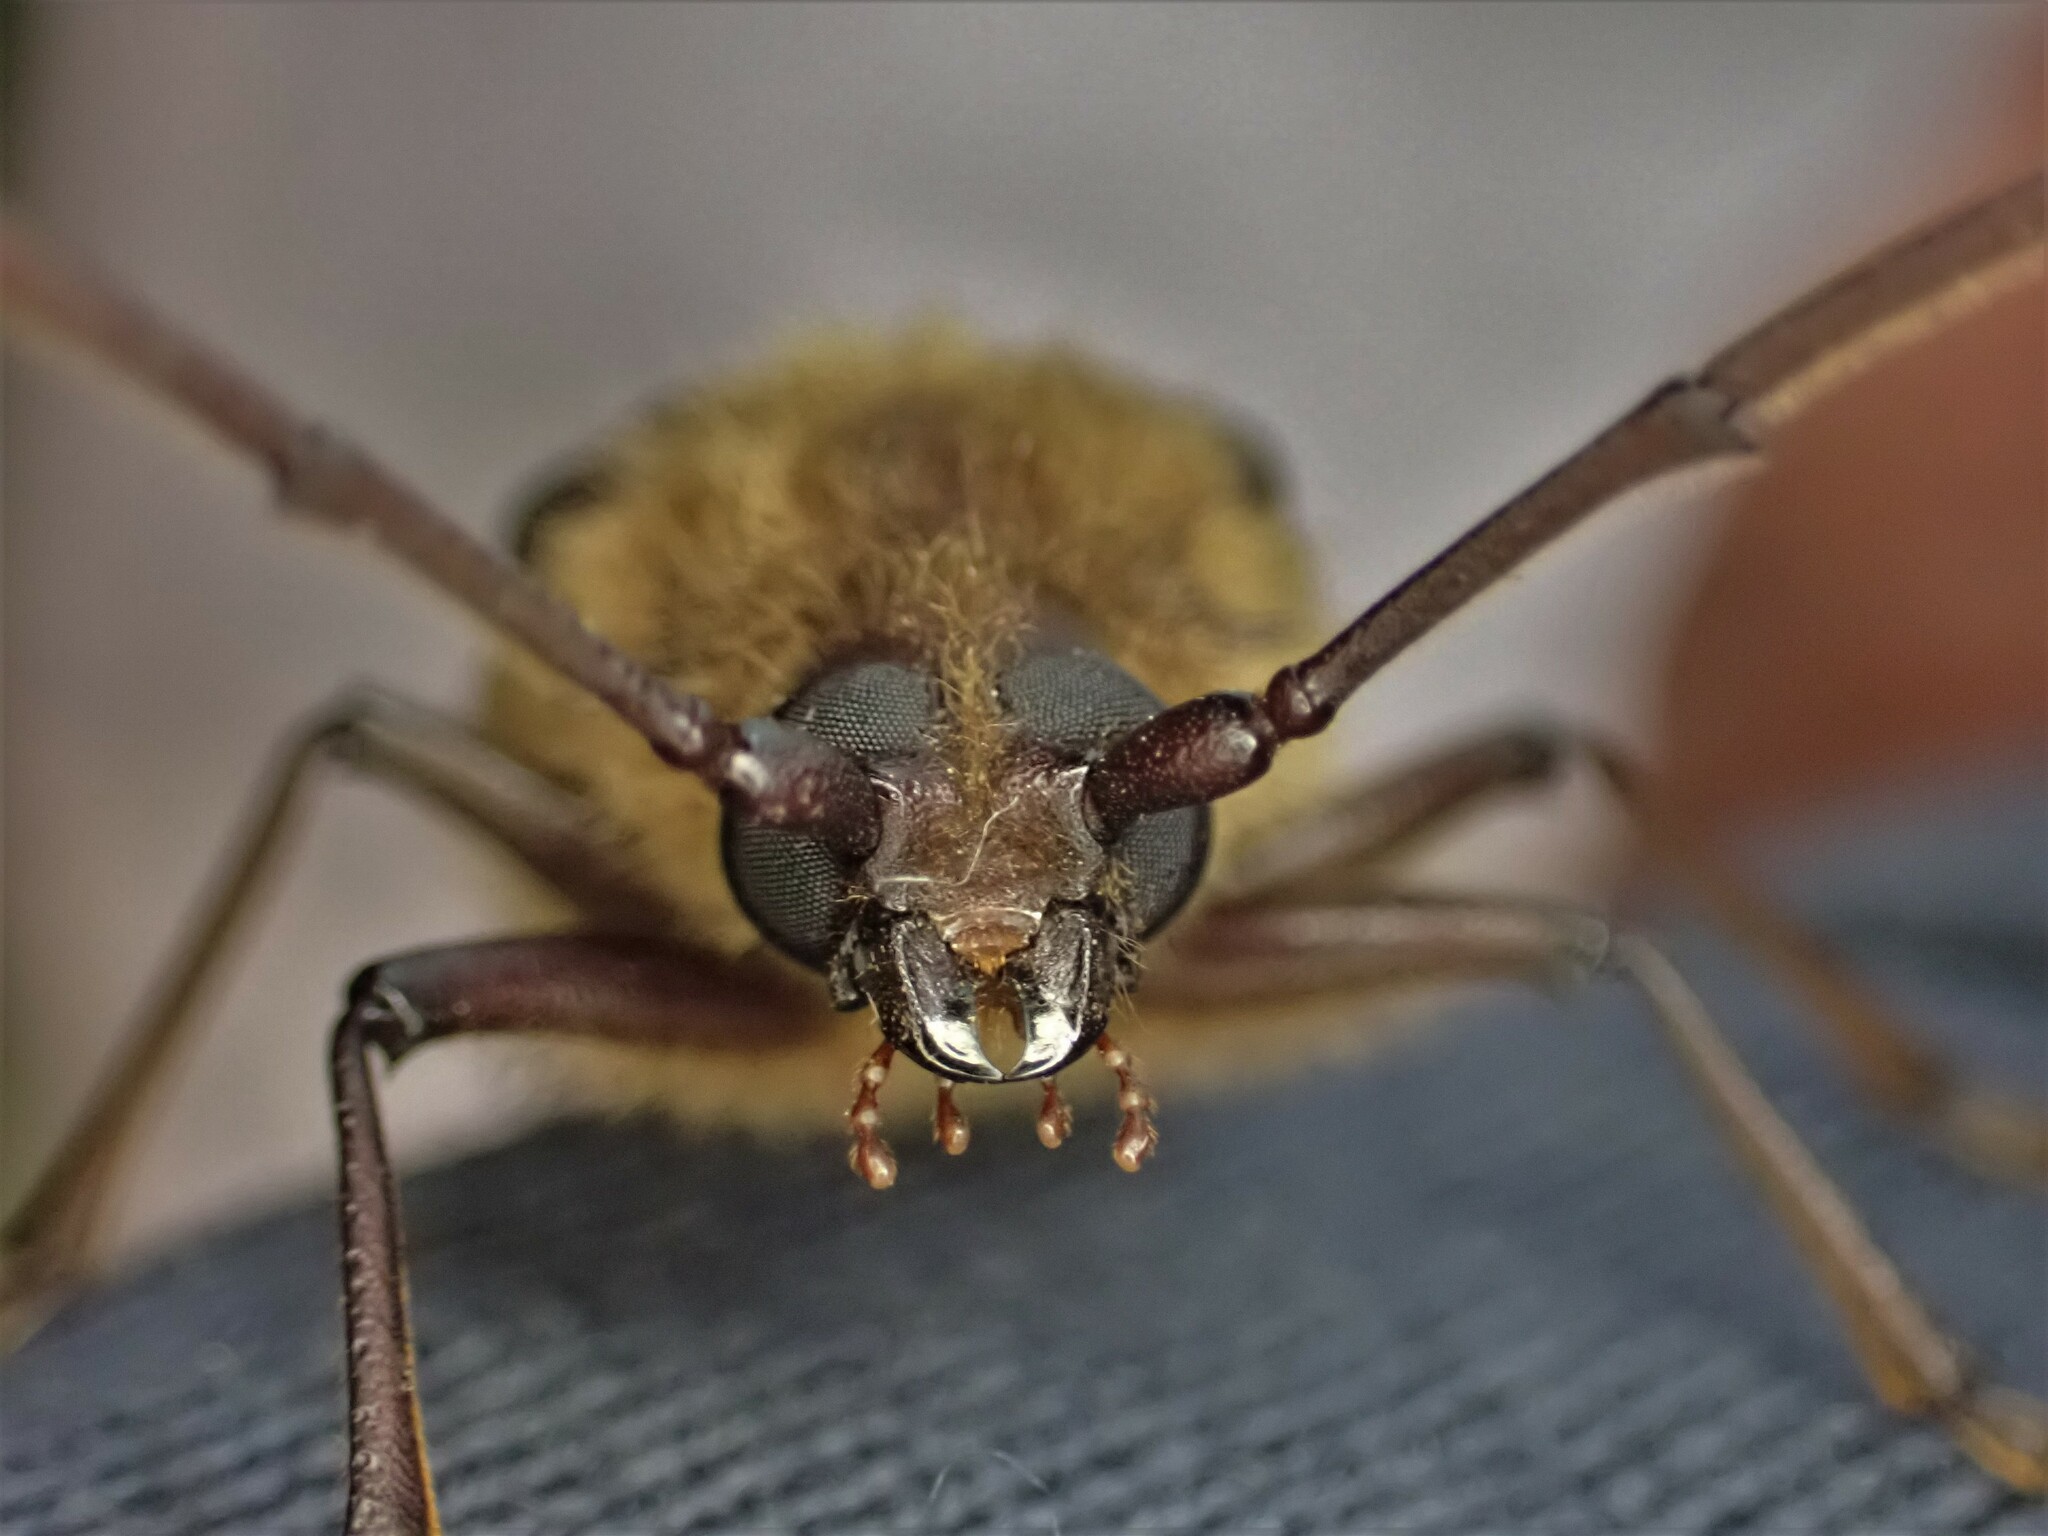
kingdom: Animalia
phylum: Arthropoda
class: Insecta
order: Coleoptera
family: Cerambycidae
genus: Prionoplus
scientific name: Prionoplus reticularis
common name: Huhu beetle
